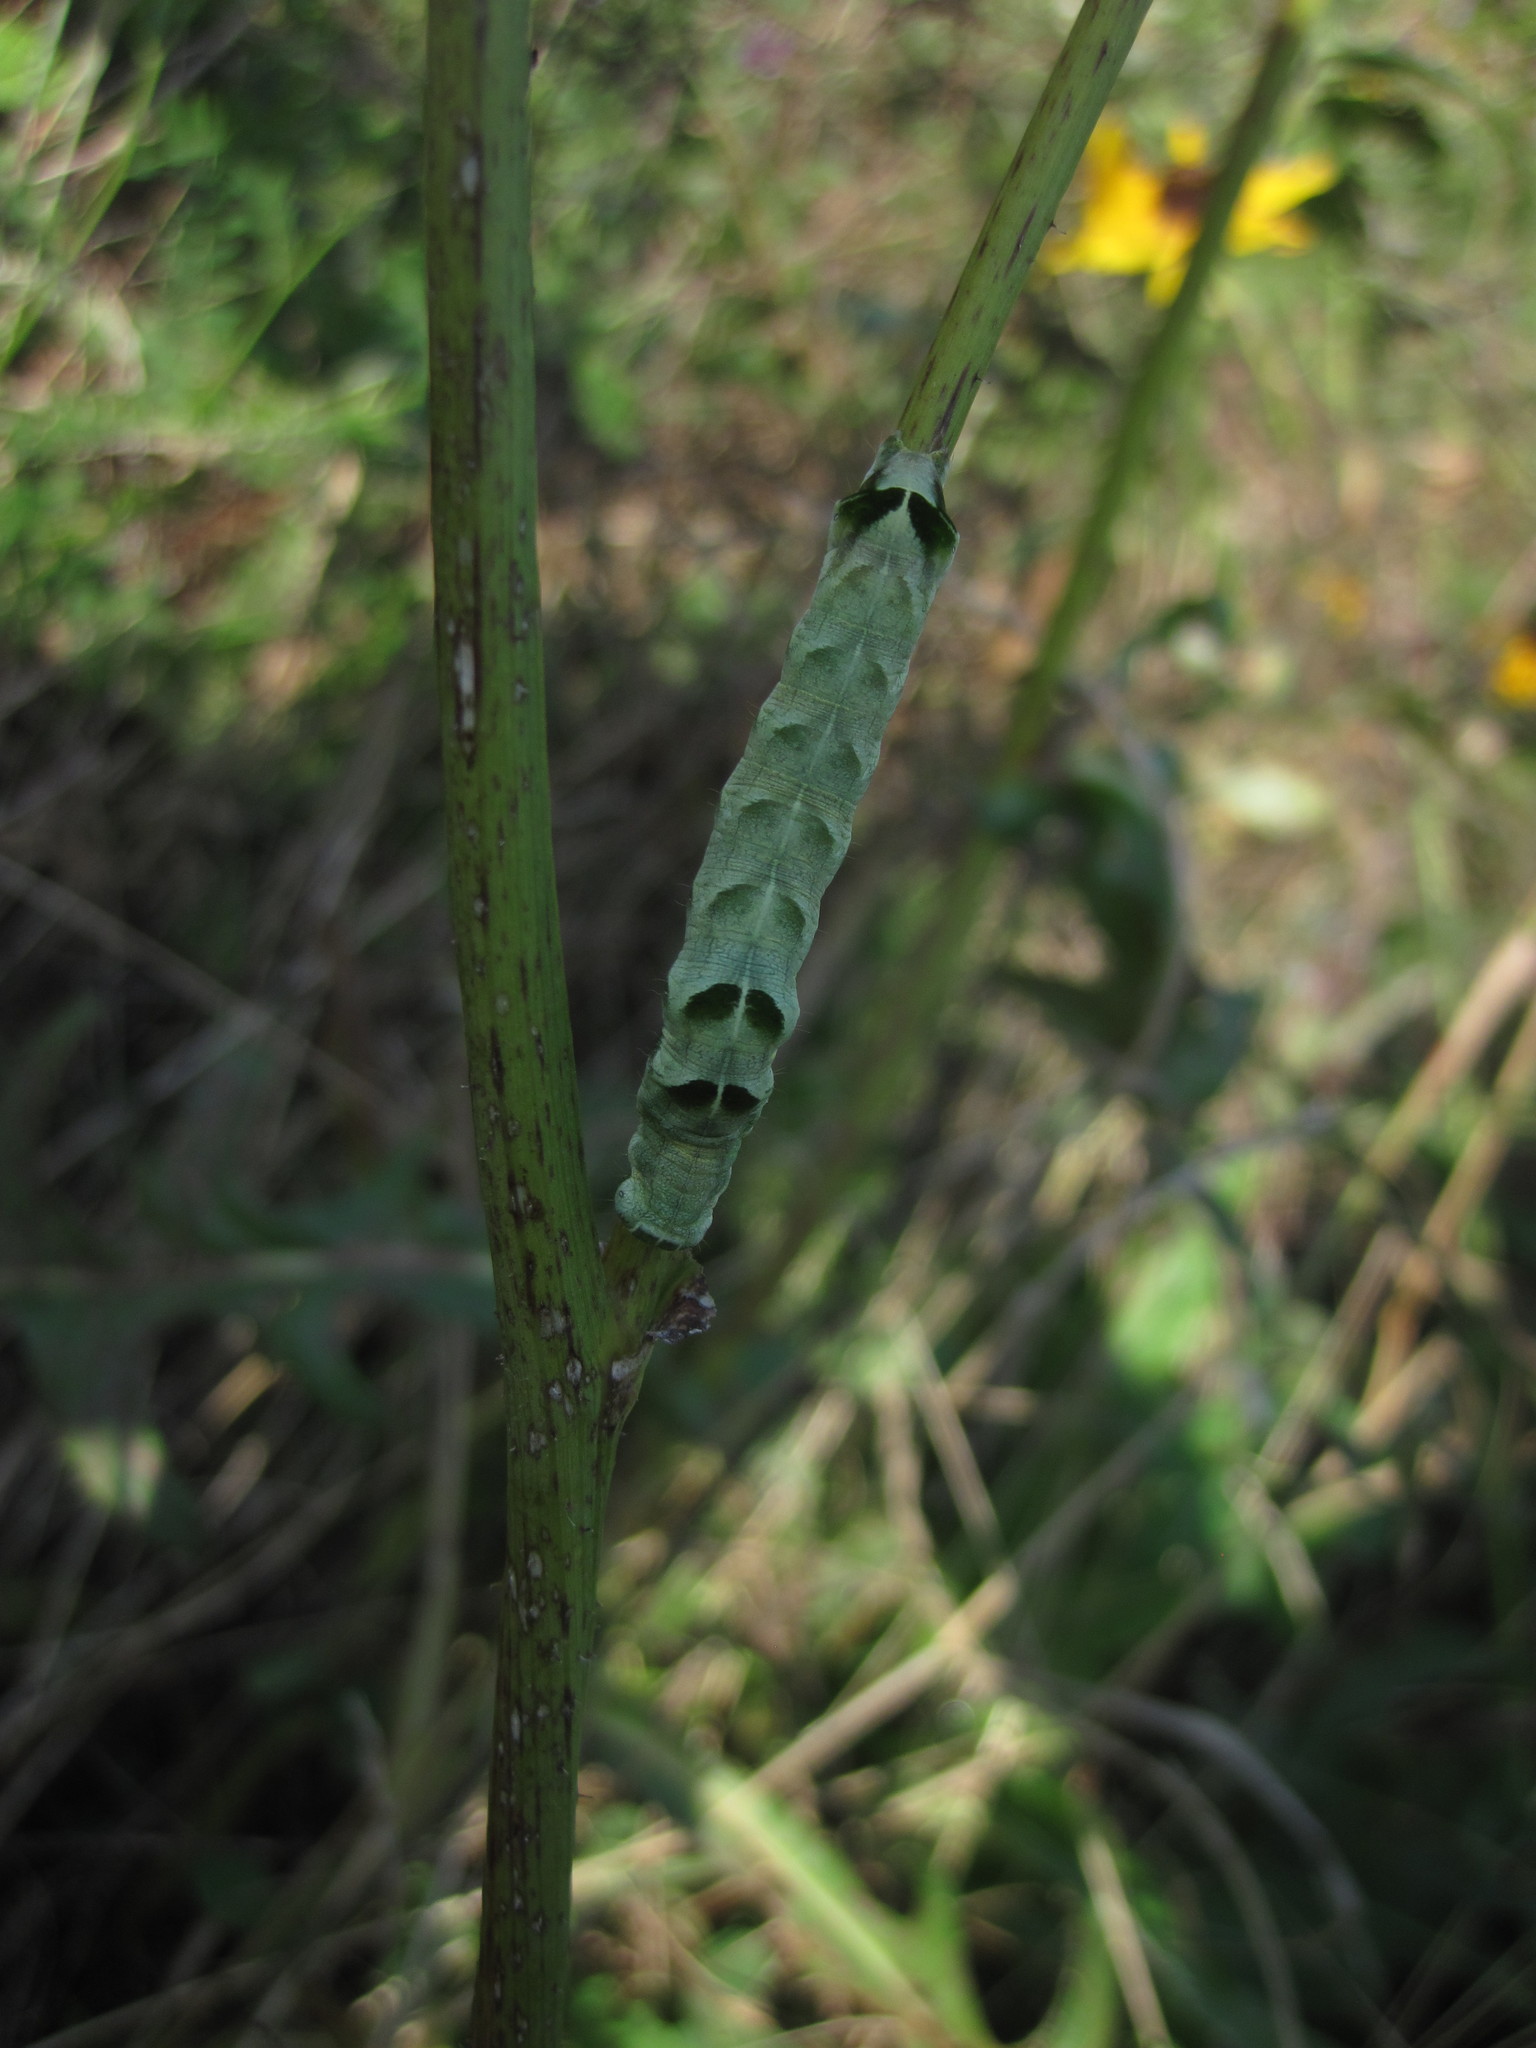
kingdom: Animalia
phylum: Arthropoda
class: Insecta
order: Lepidoptera
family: Noctuidae
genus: Melanchra
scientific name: Melanchra adjuncta
